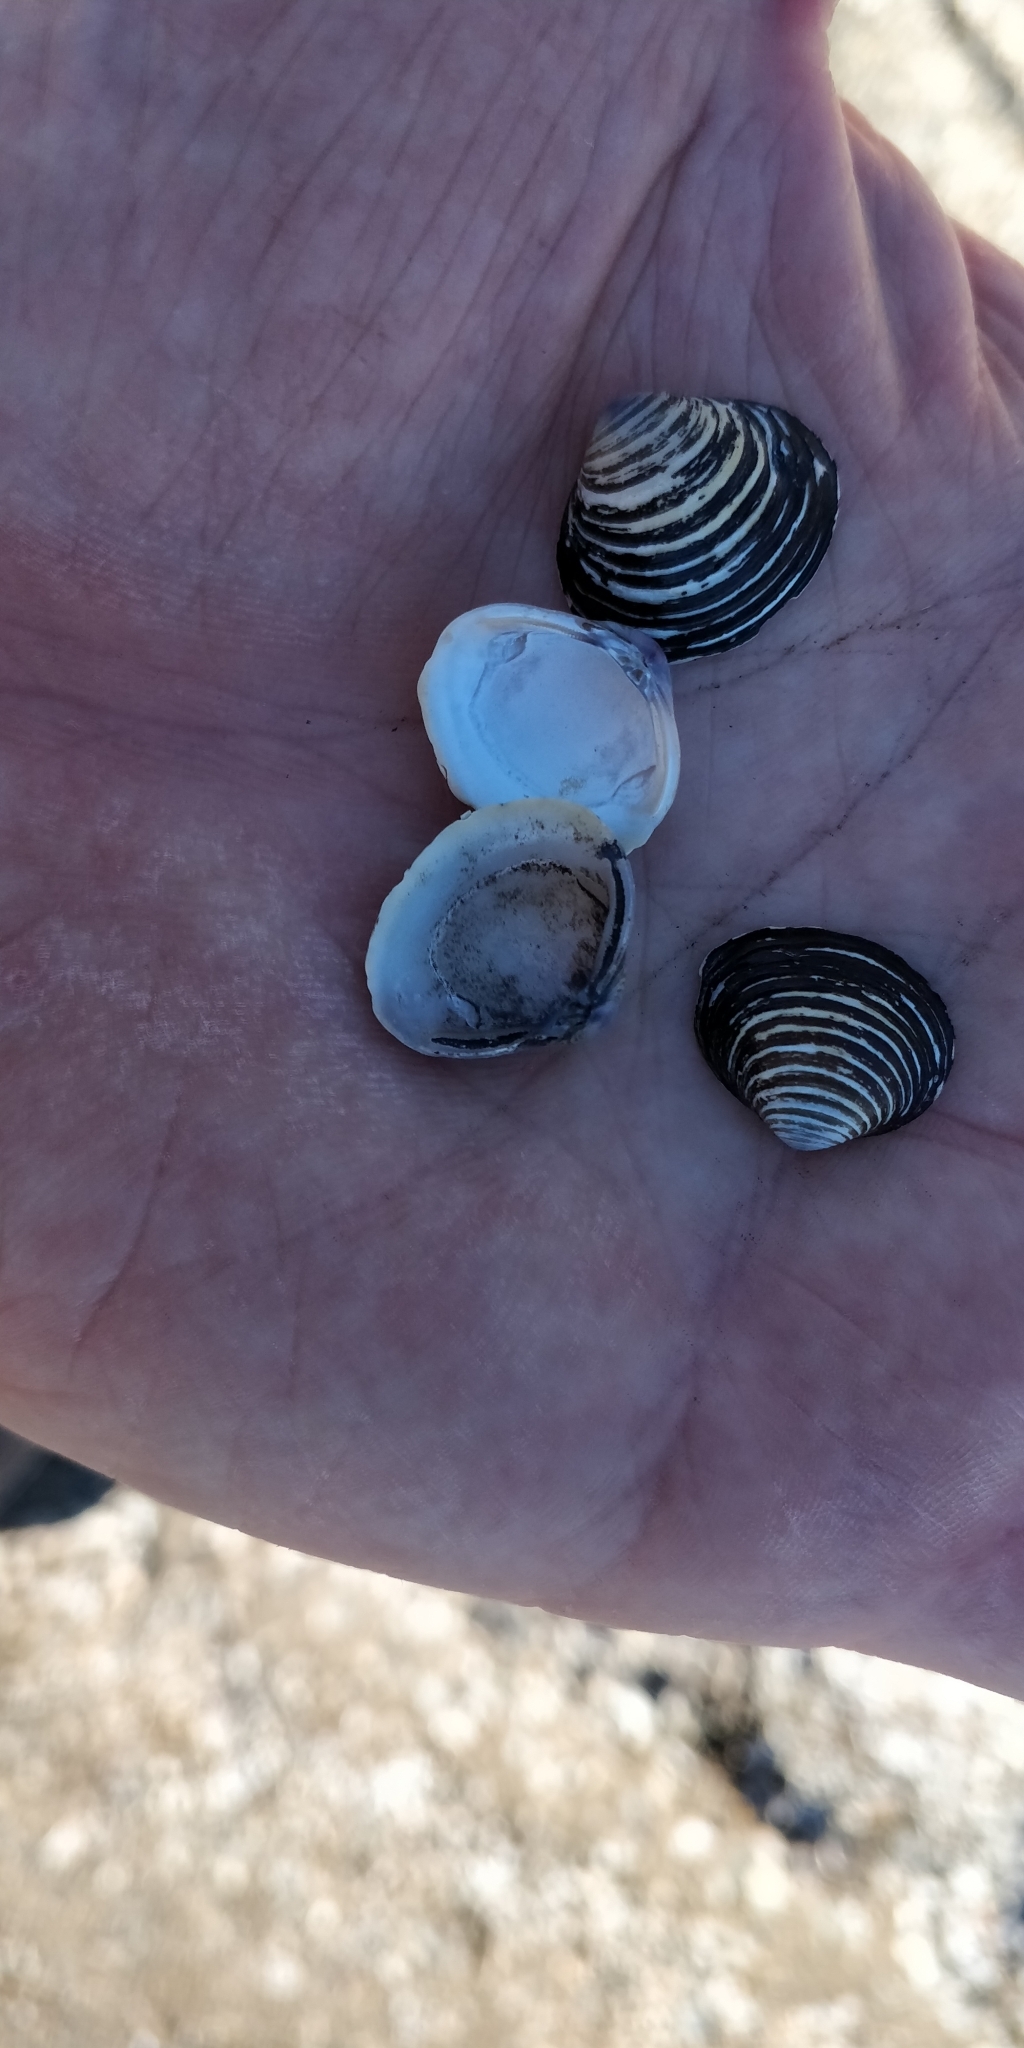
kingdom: Animalia
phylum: Mollusca
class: Bivalvia
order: Venerida
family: Cyrenidae
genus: Corbicula
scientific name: Corbicula fluminea
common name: Asian clam
